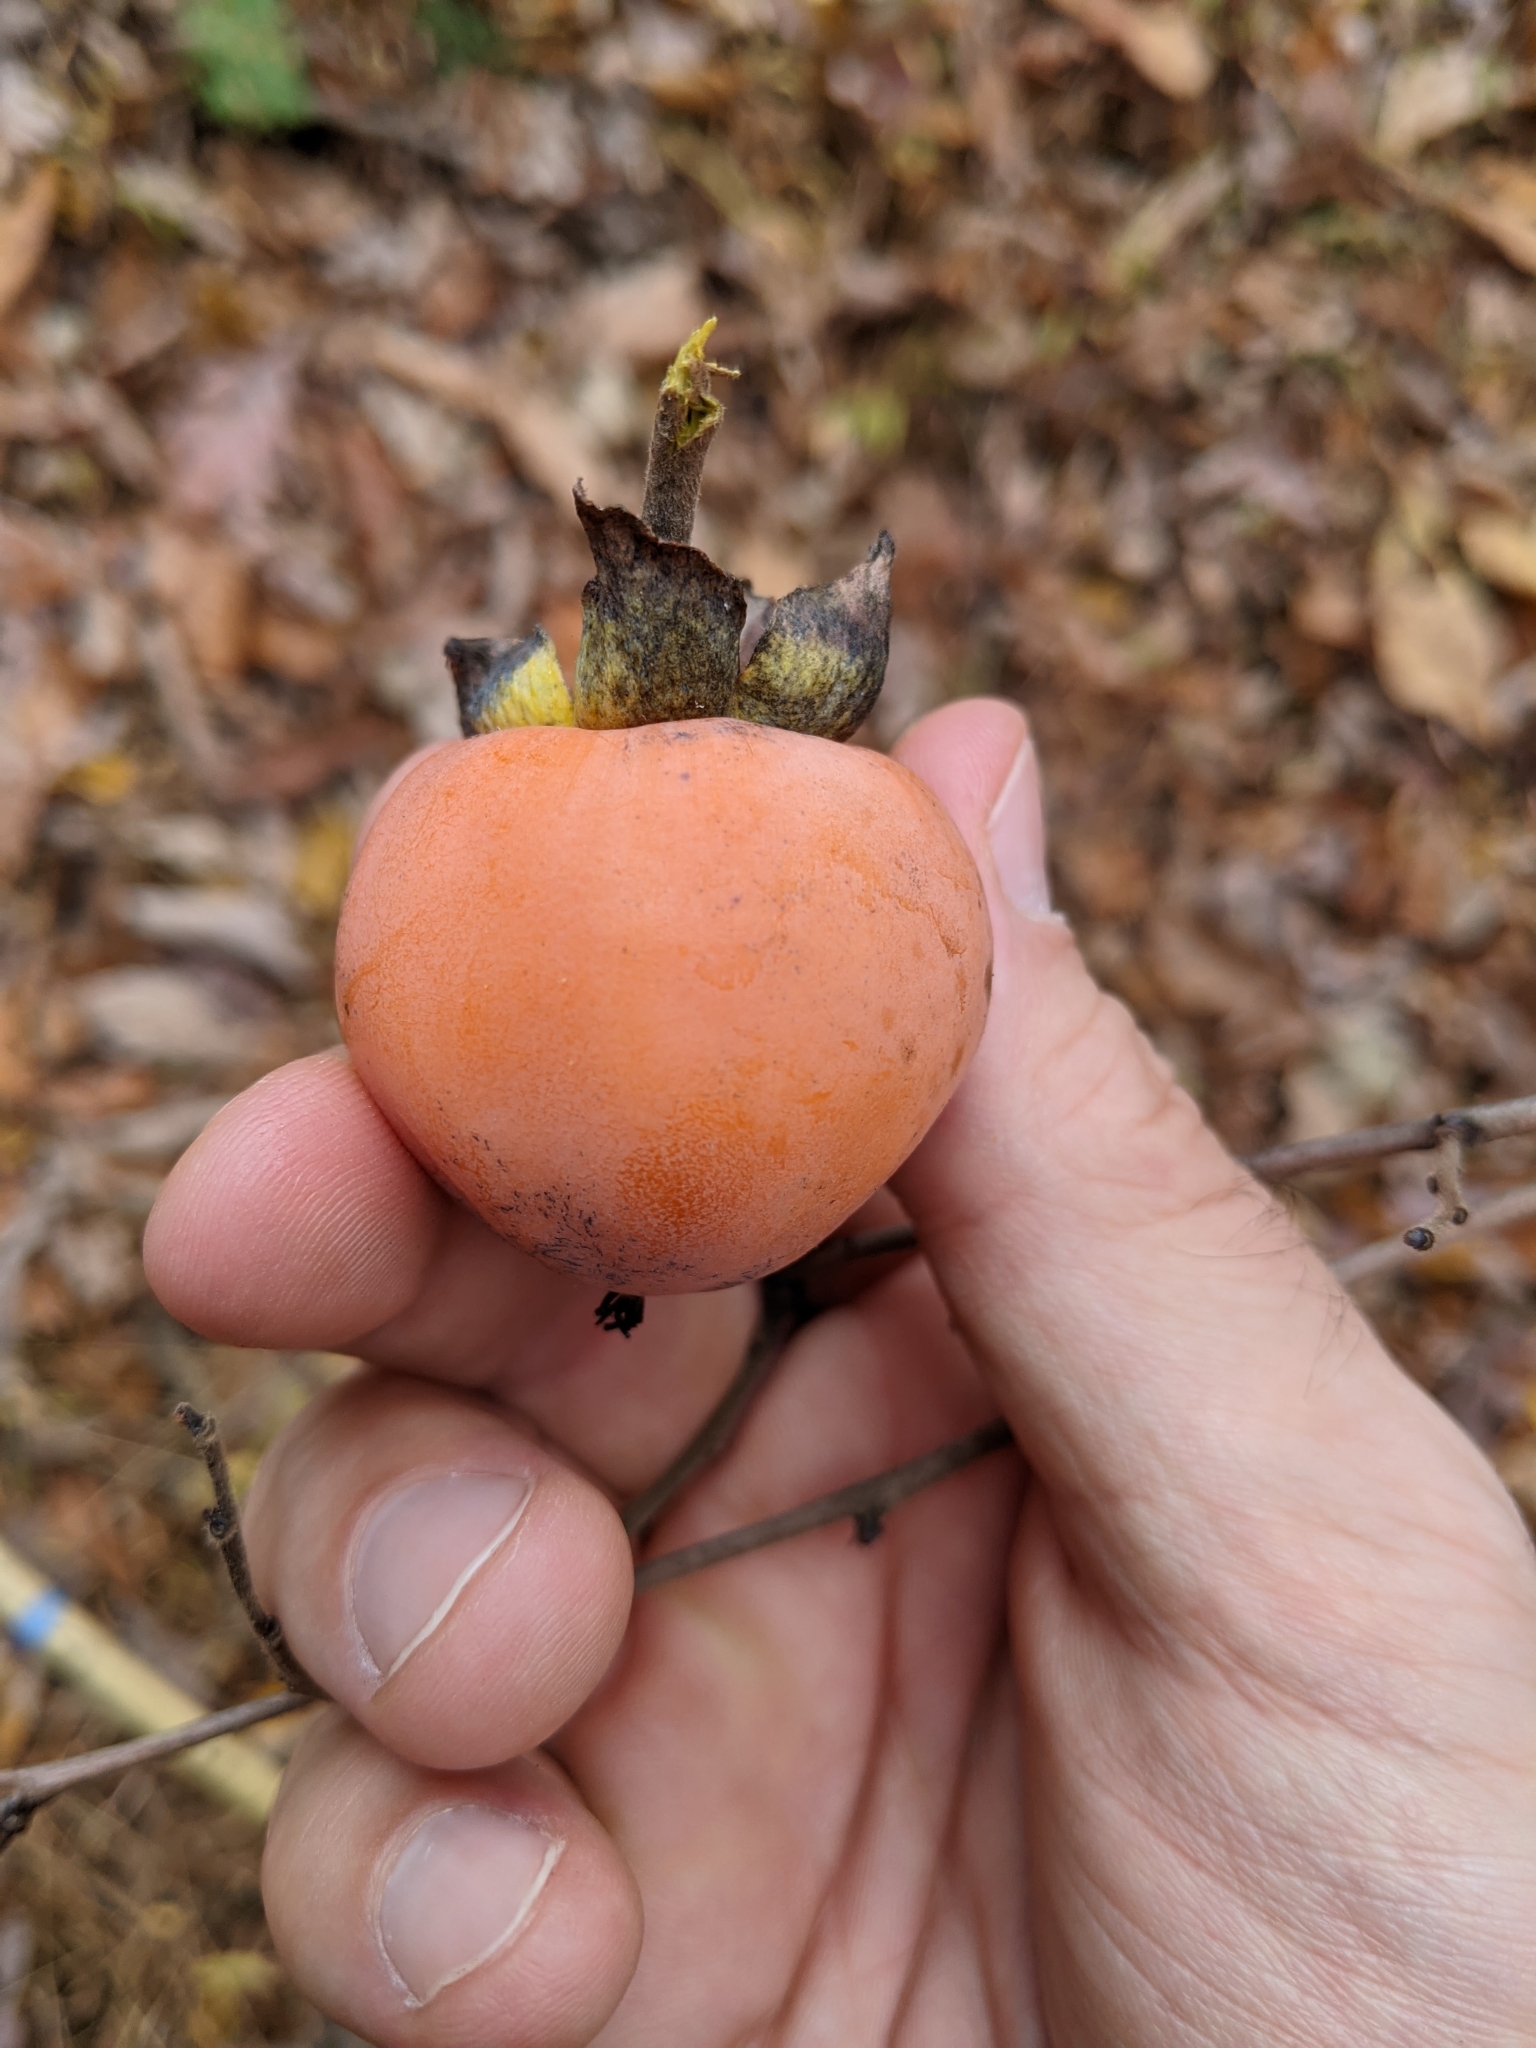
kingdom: Plantae
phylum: Tracheophyta
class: Magnoliopsida
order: Ericales
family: Ebenaceae
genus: Diospyros
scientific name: Diospyros virginiana
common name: Persimmon
